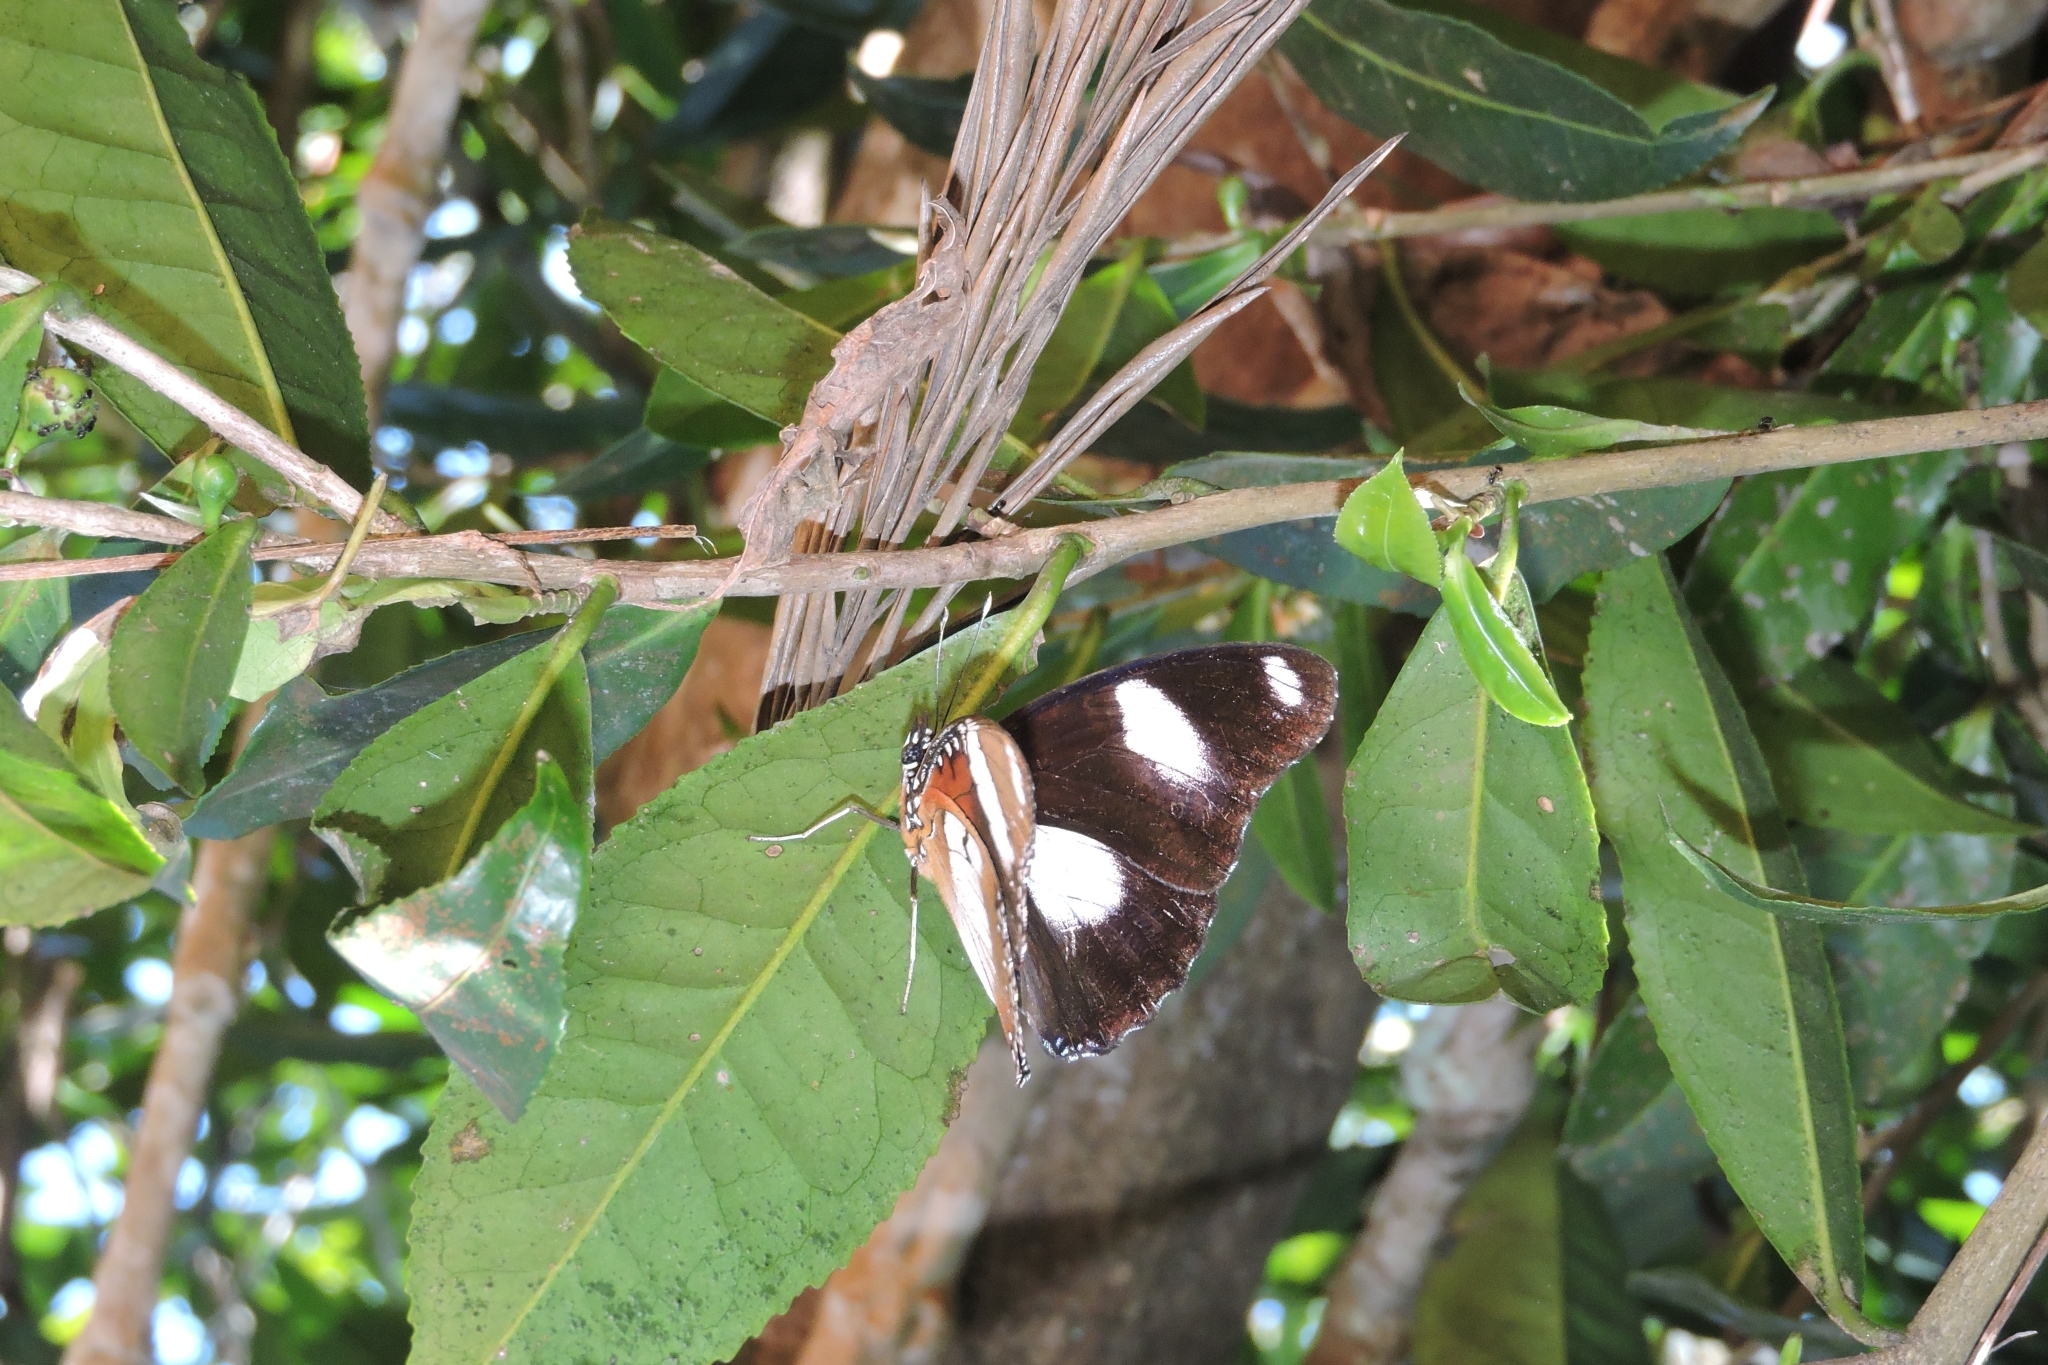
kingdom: Animalia
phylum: Arthropoda
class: Insecta
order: Lepidoptera
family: Nymphalidae
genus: Hypolimnas
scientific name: Hypolimnas misippus
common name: False plain tiger
